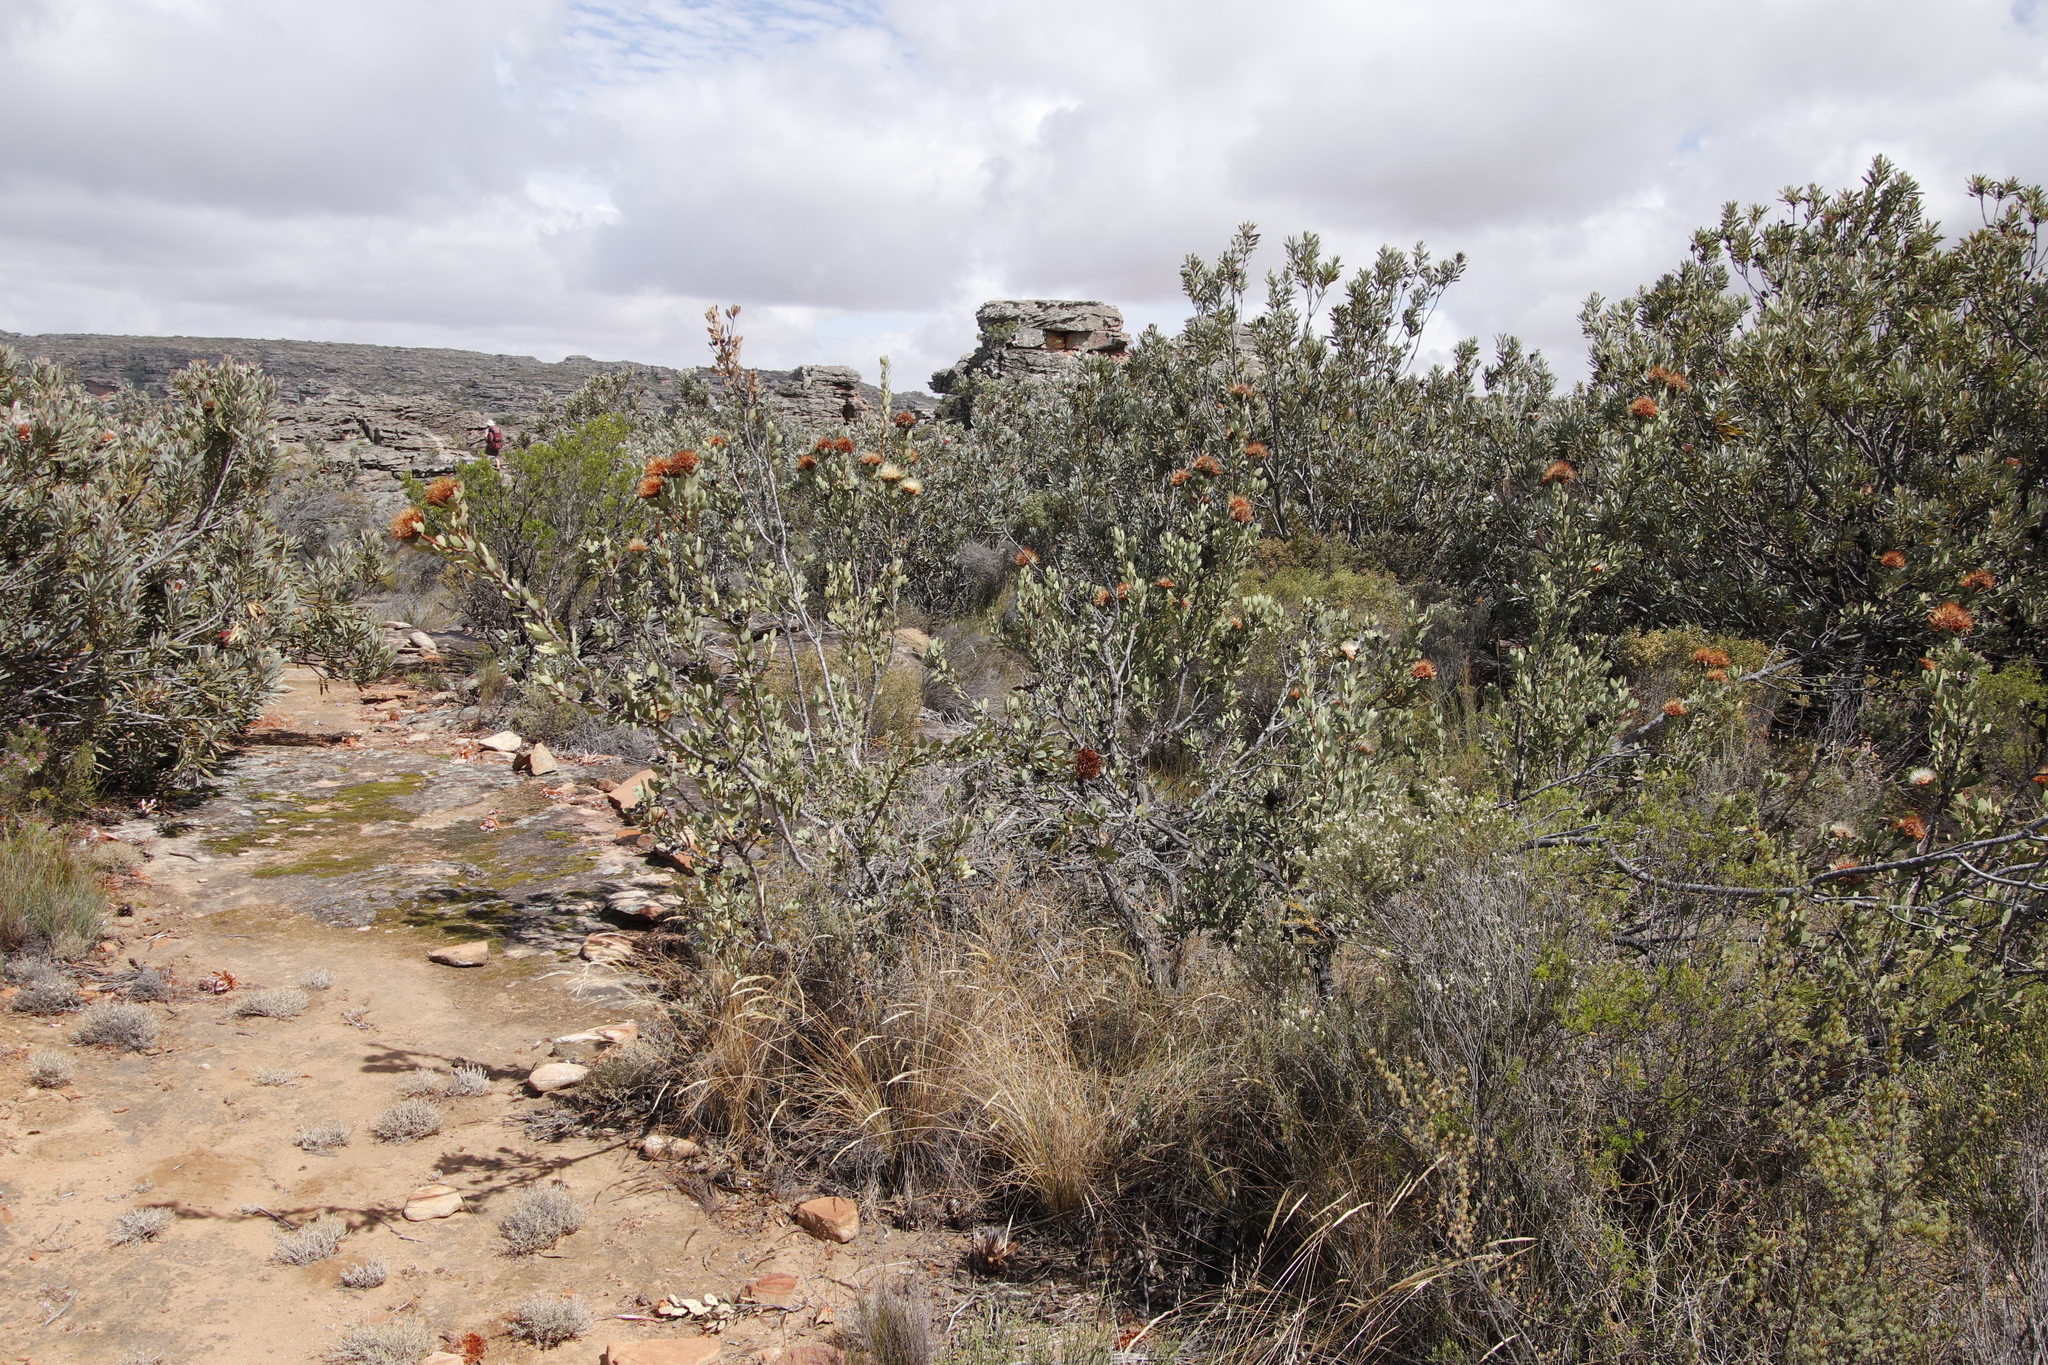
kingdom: Plantae
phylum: Tracheophyta
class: Magnoliopsida
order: Proteales
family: Proteaceae
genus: Protea
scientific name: Protea glabra
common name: Chestnut sugarbush
